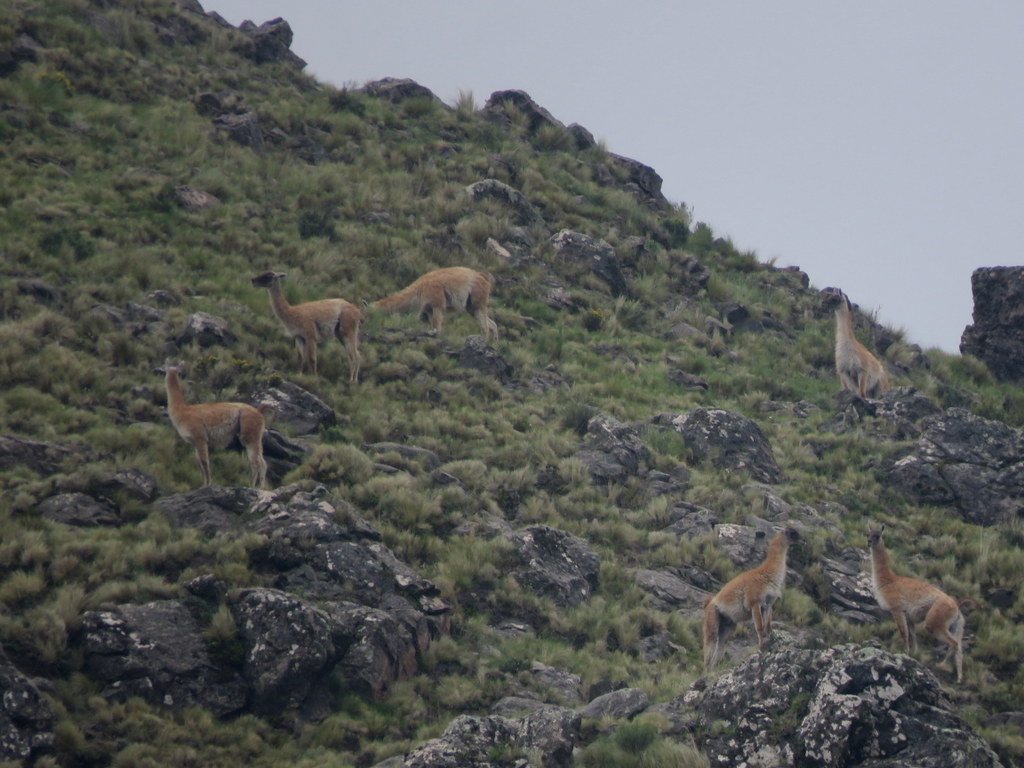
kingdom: Animalia
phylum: Chordata
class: Mammalia
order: Artiodactyla
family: Camelidae
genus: Lama
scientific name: Lama glama
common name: Llama
